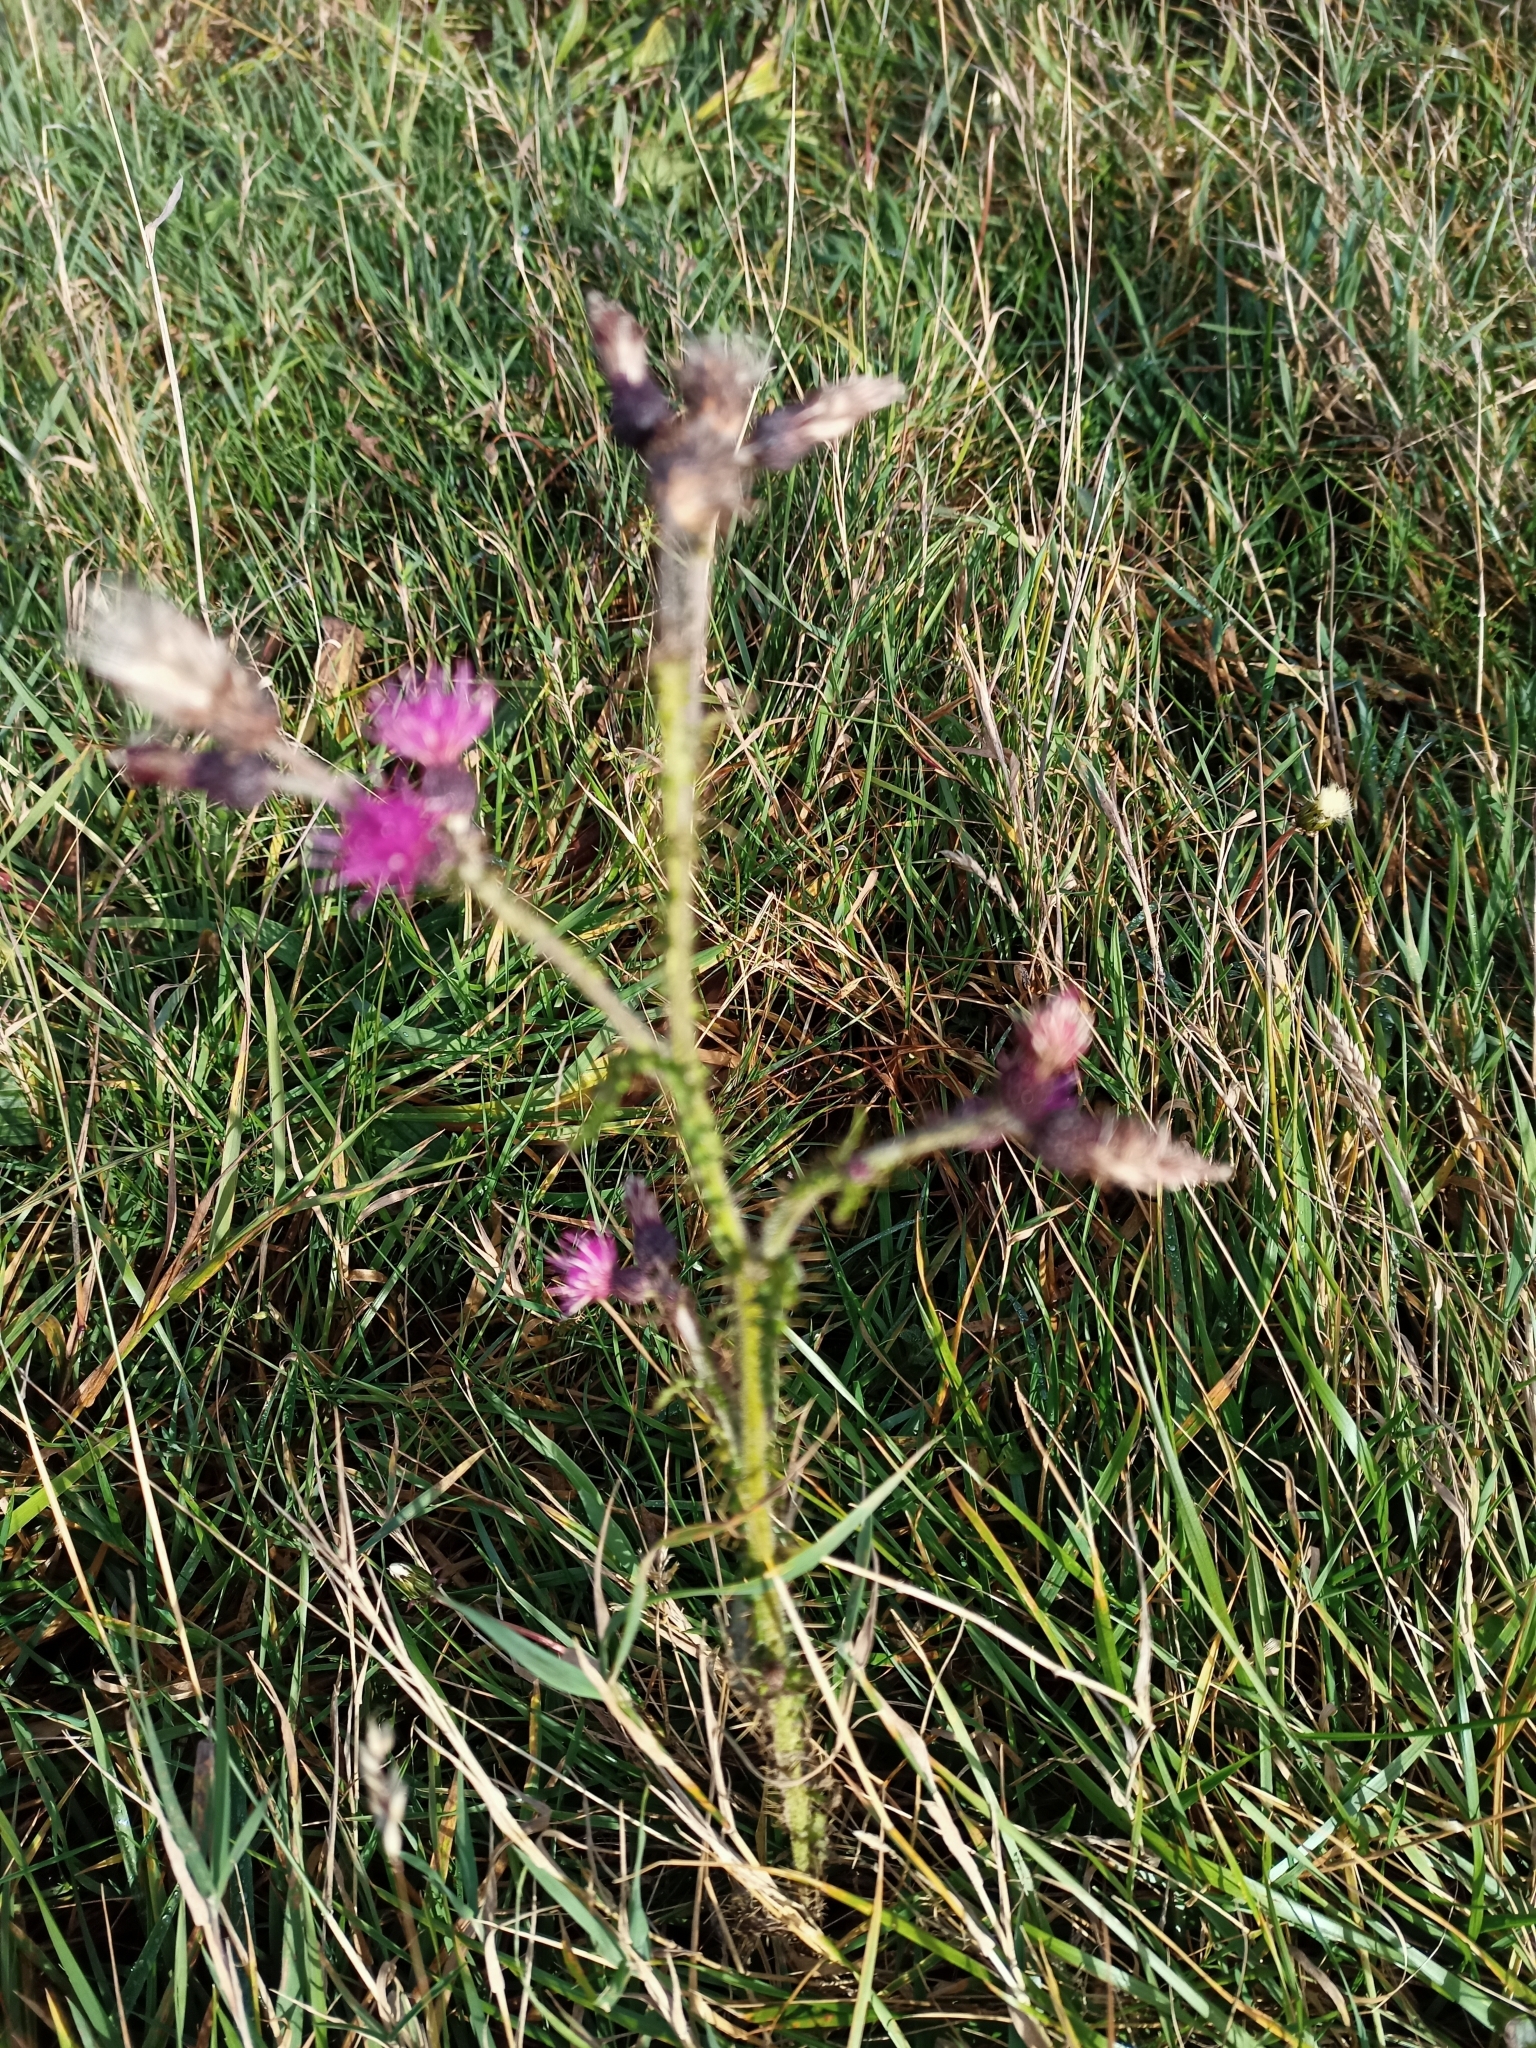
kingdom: Plantae
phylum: Tracheophyta
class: Magnoliopsida
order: Asterales
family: Asteraceae
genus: Cirsium
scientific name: Cirsium palustre
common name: Marsh thistle
